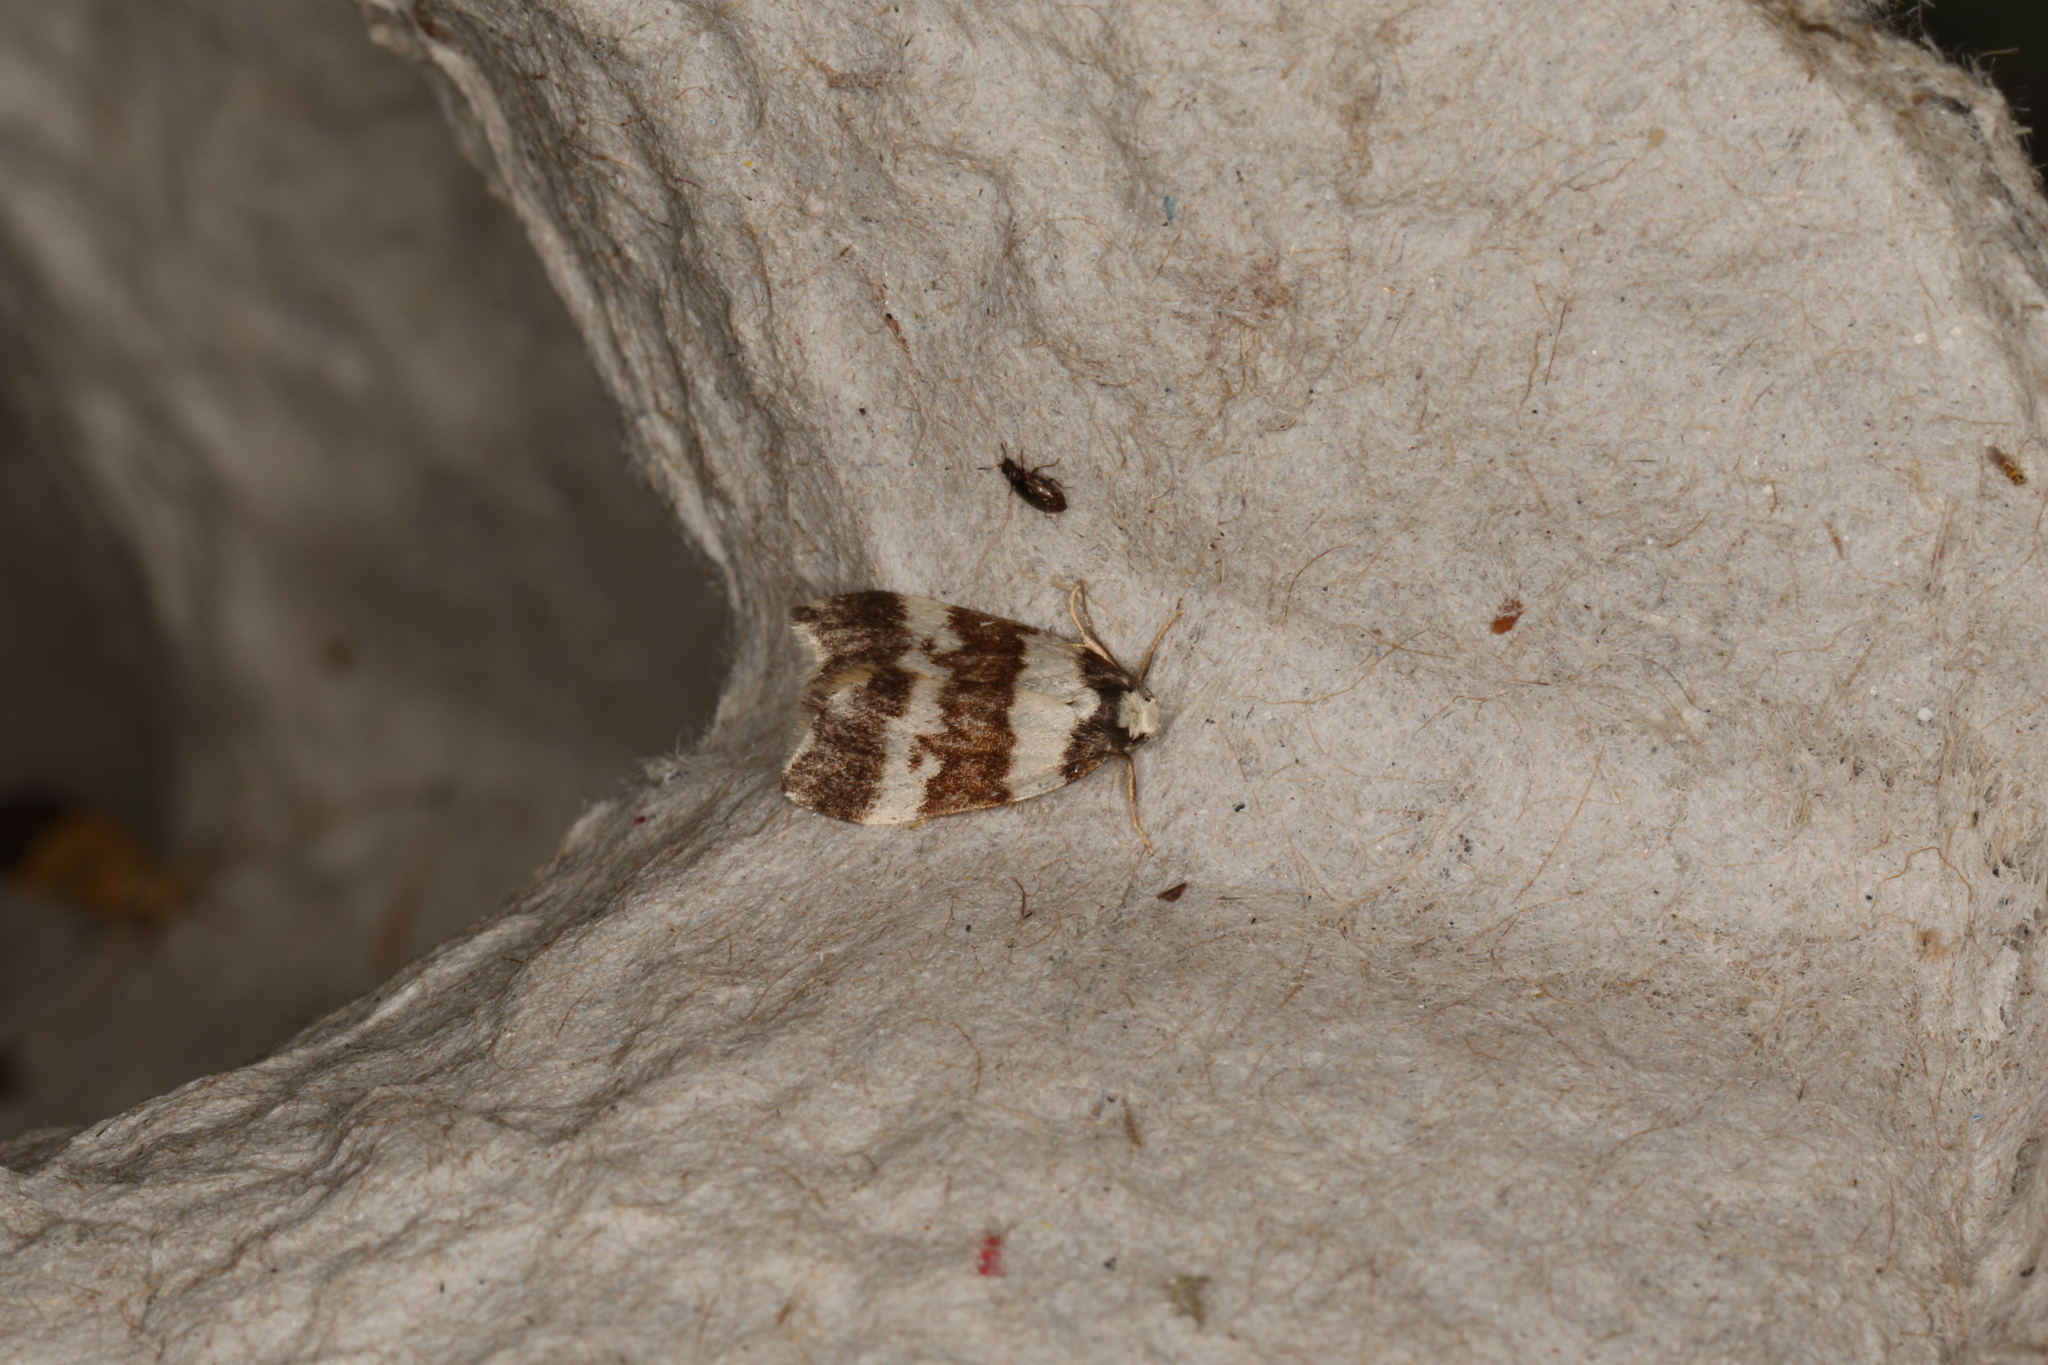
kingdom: Animalia
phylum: Arthropoda
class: Insecta
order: Lepidoptera
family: Erebidae
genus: Halone
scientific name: Halone sejuncta
